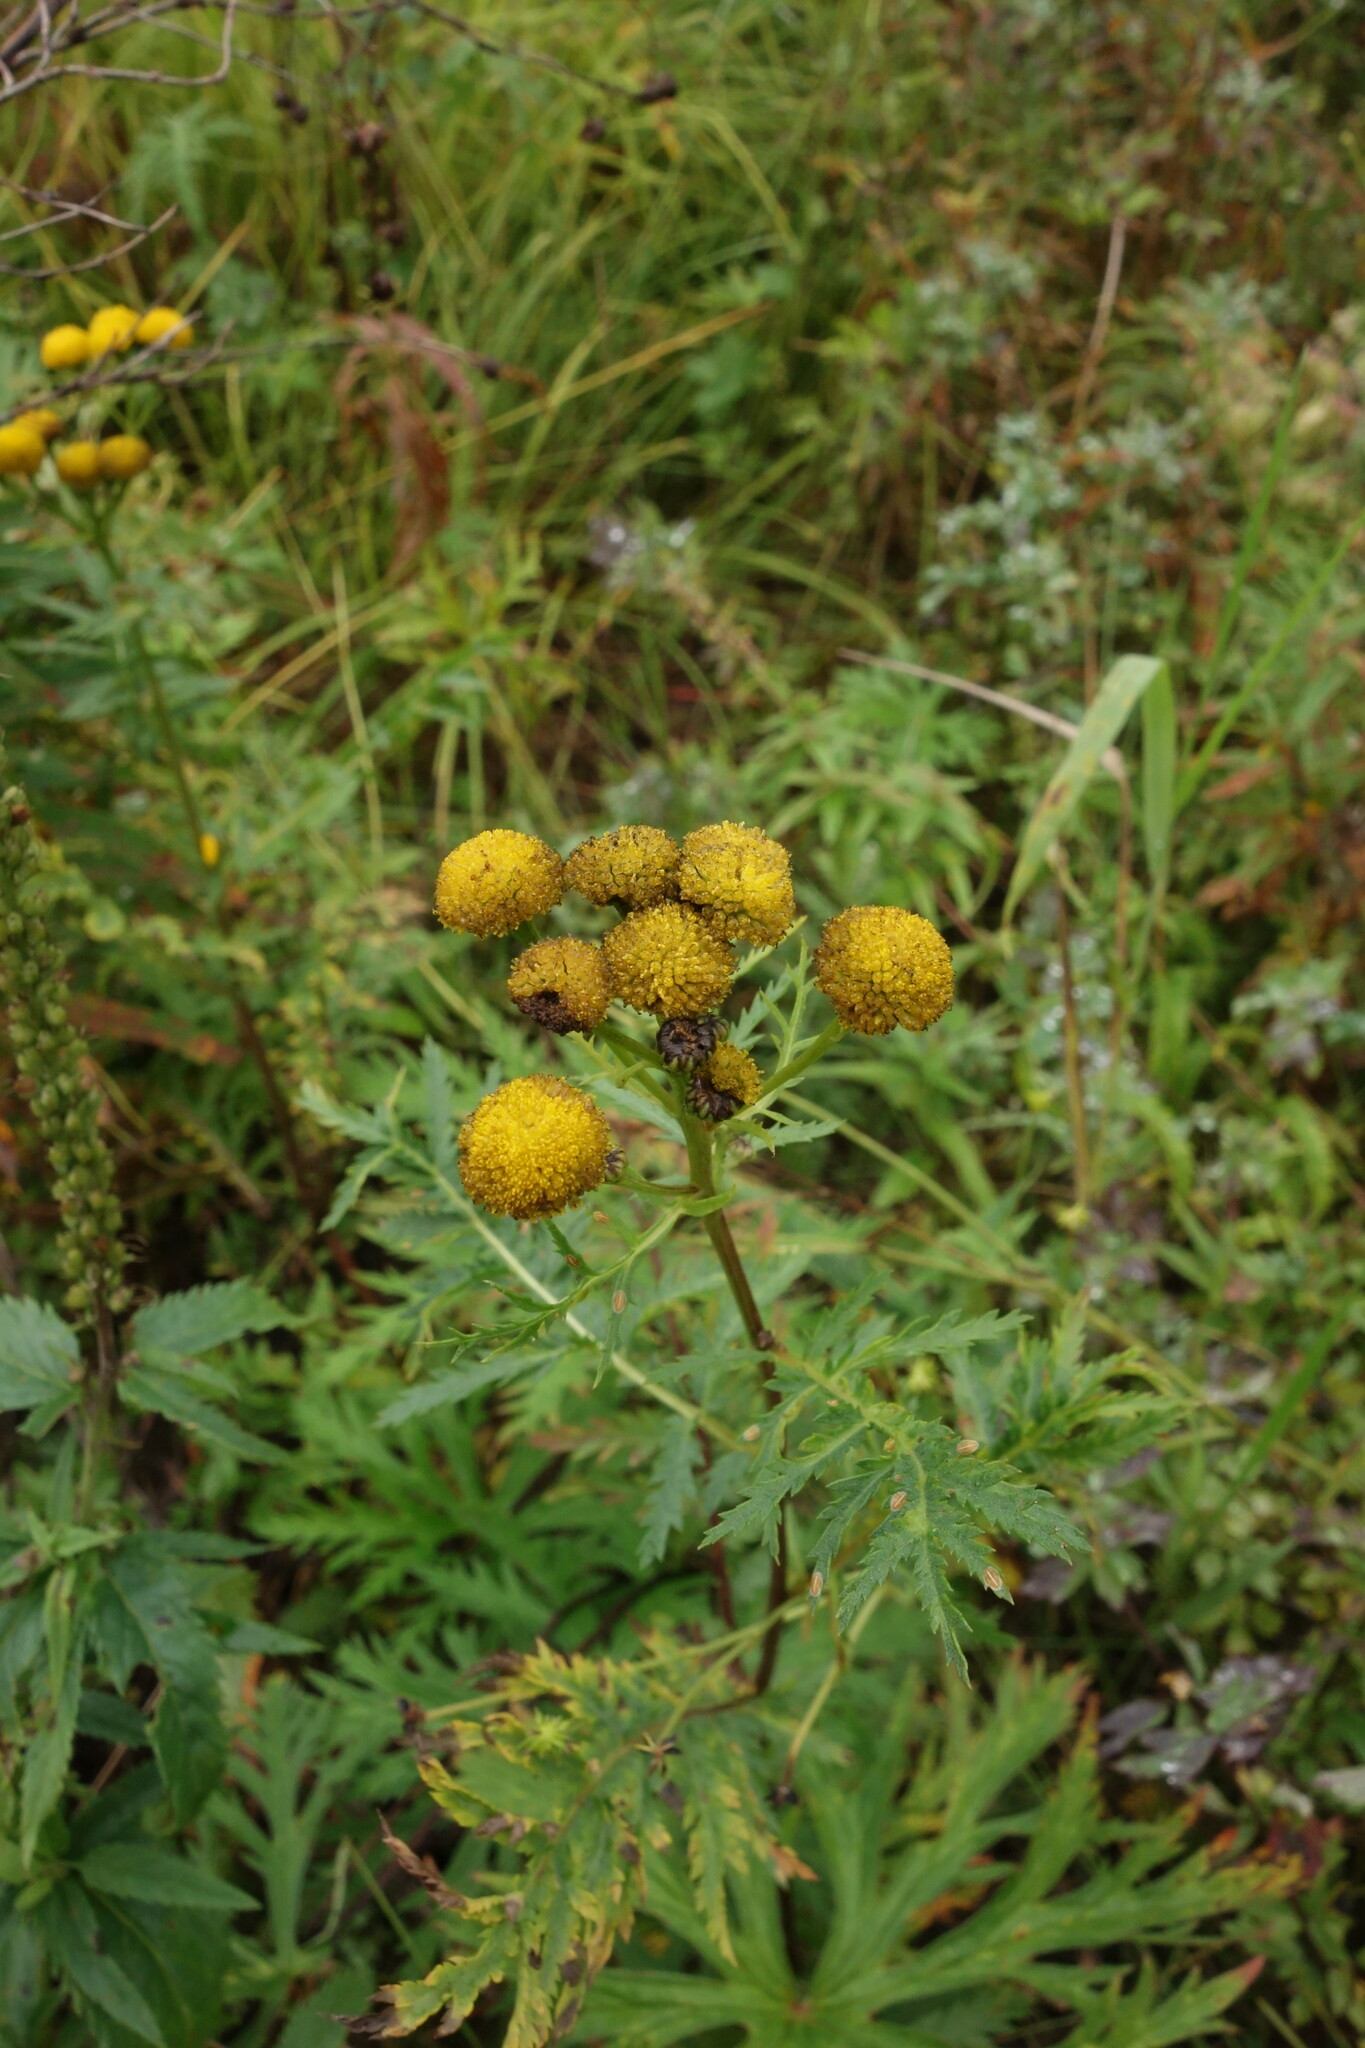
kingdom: Plantae
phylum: Tracheophyta
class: Magnoliopsida
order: Asterales
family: Asteraceae
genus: Tanacetum
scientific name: Tanacetum vulgare
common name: Common tansy
